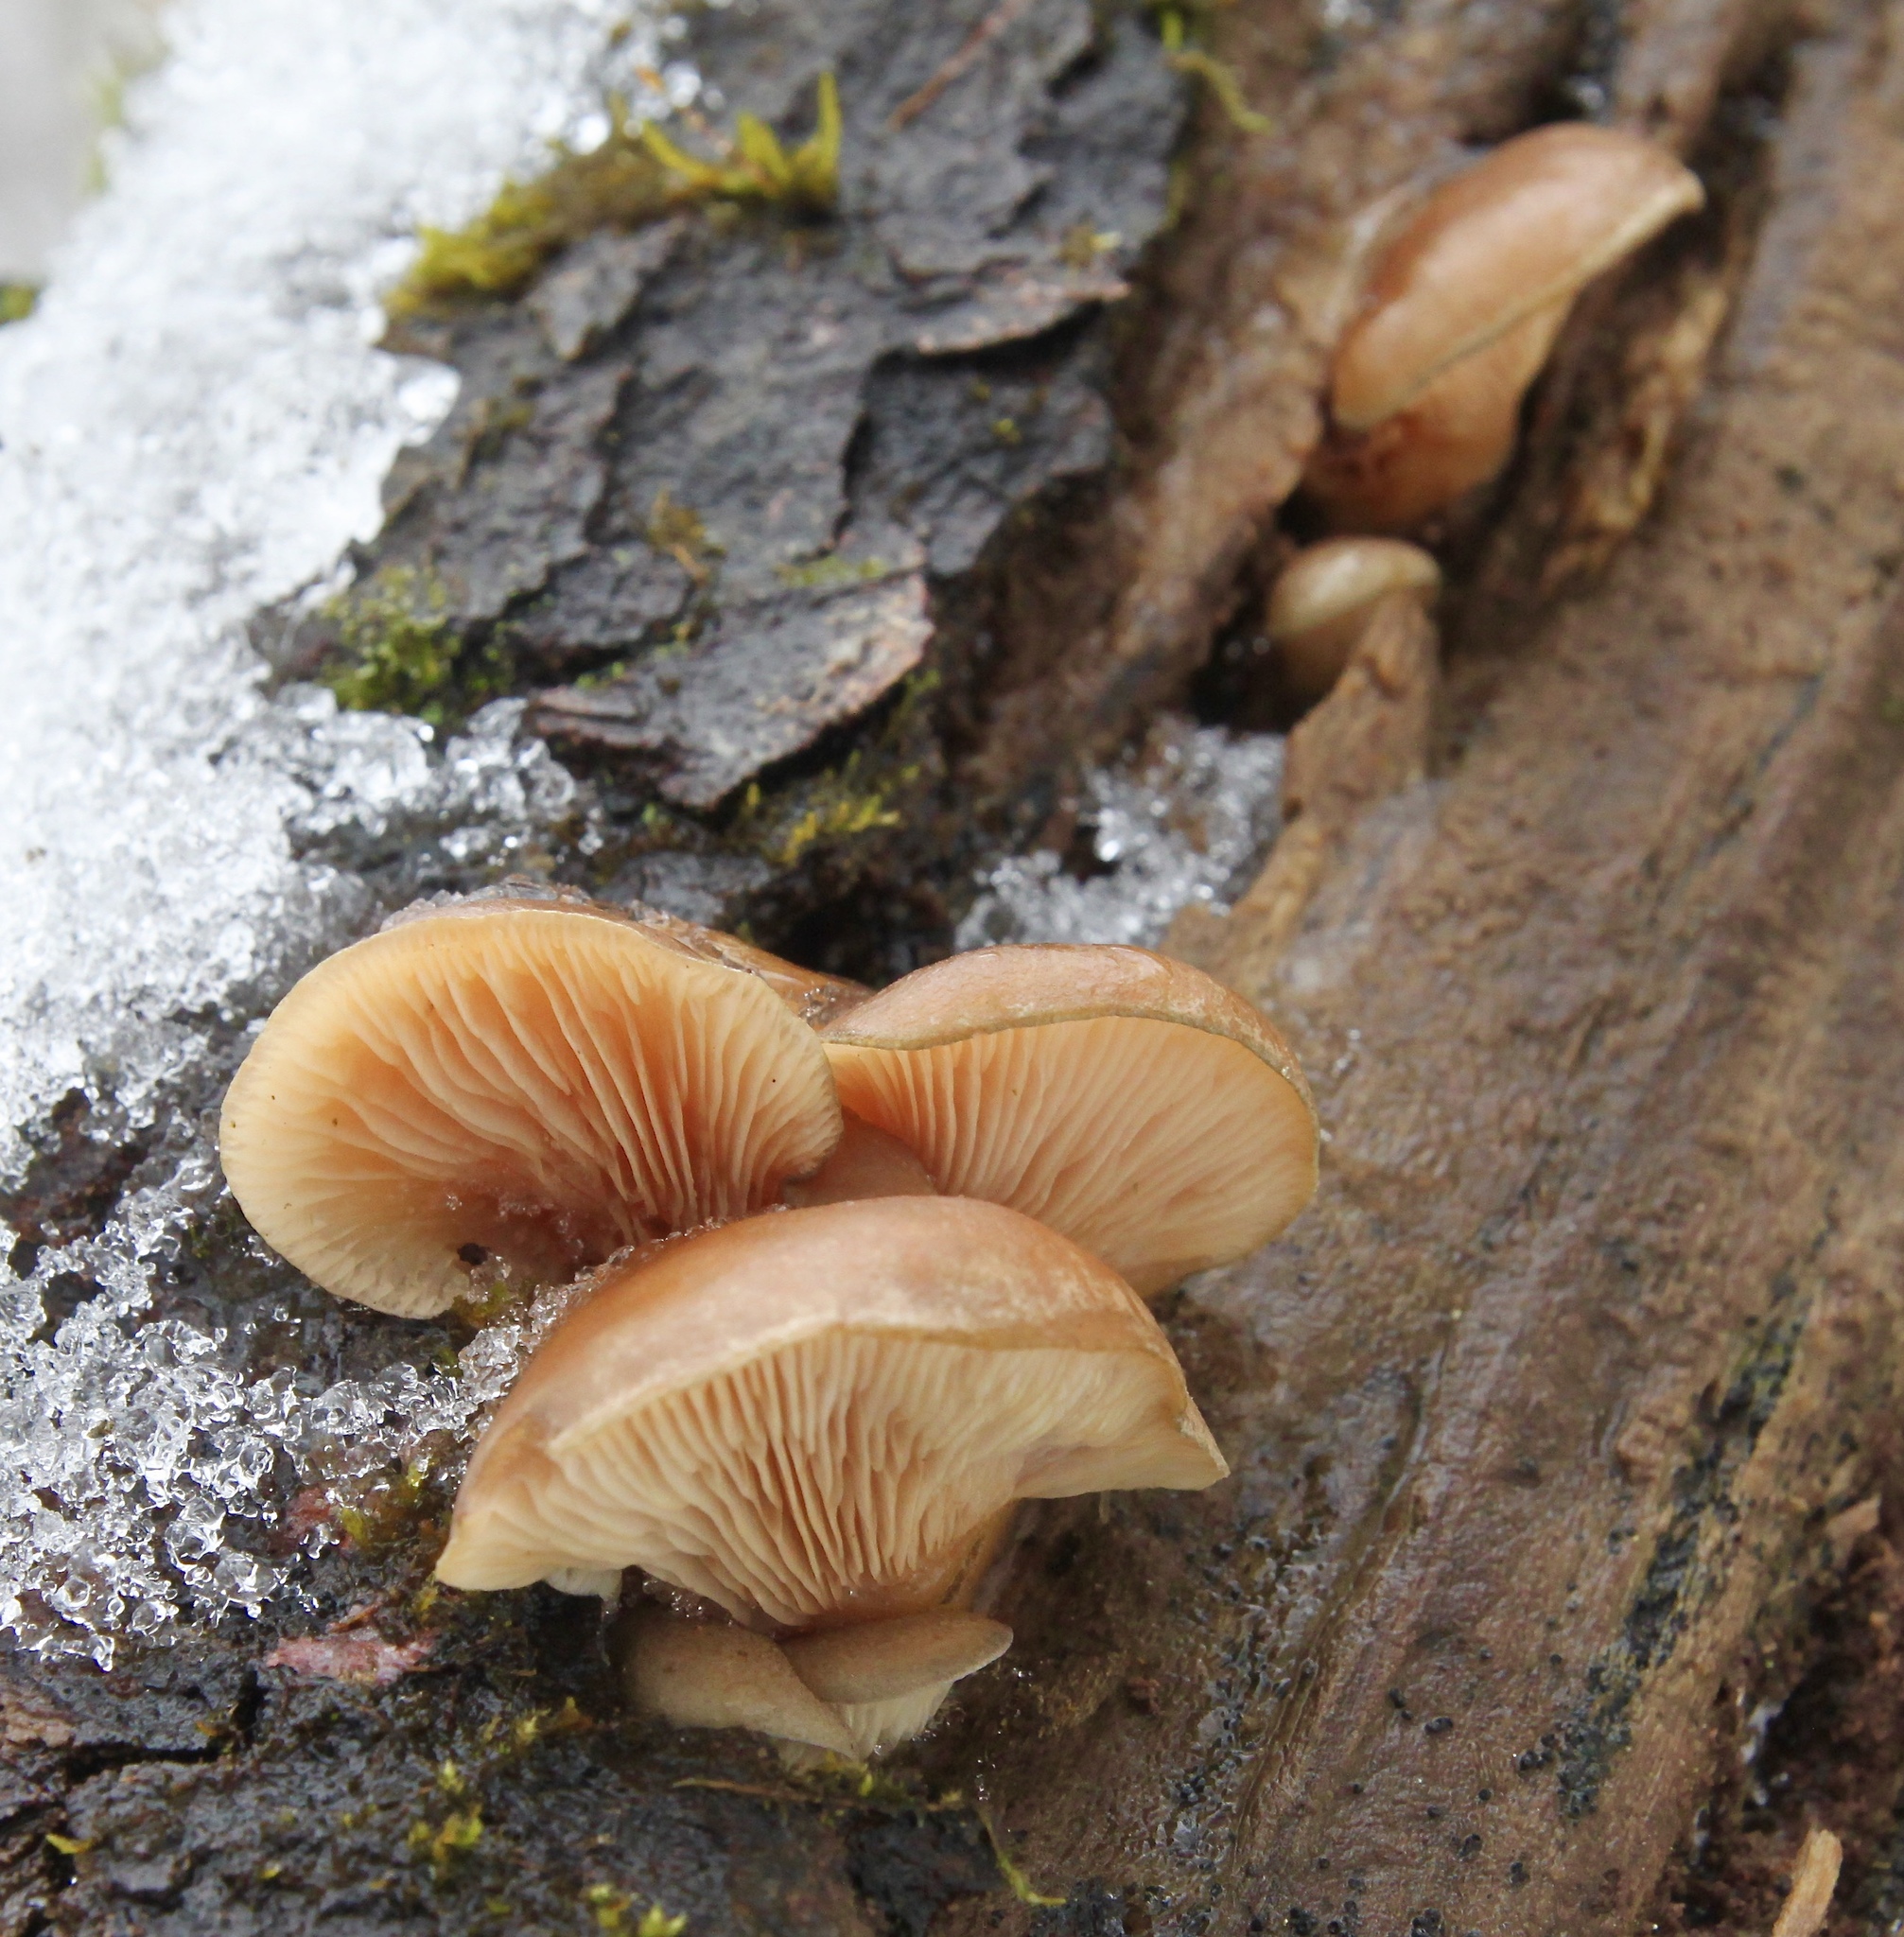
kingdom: Fungi
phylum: Basidiomycota
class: Agaricomycetes
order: Agaricales
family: Sarcomyxaceae
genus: Sarcomyxa
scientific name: Sarcomyxa serotina
